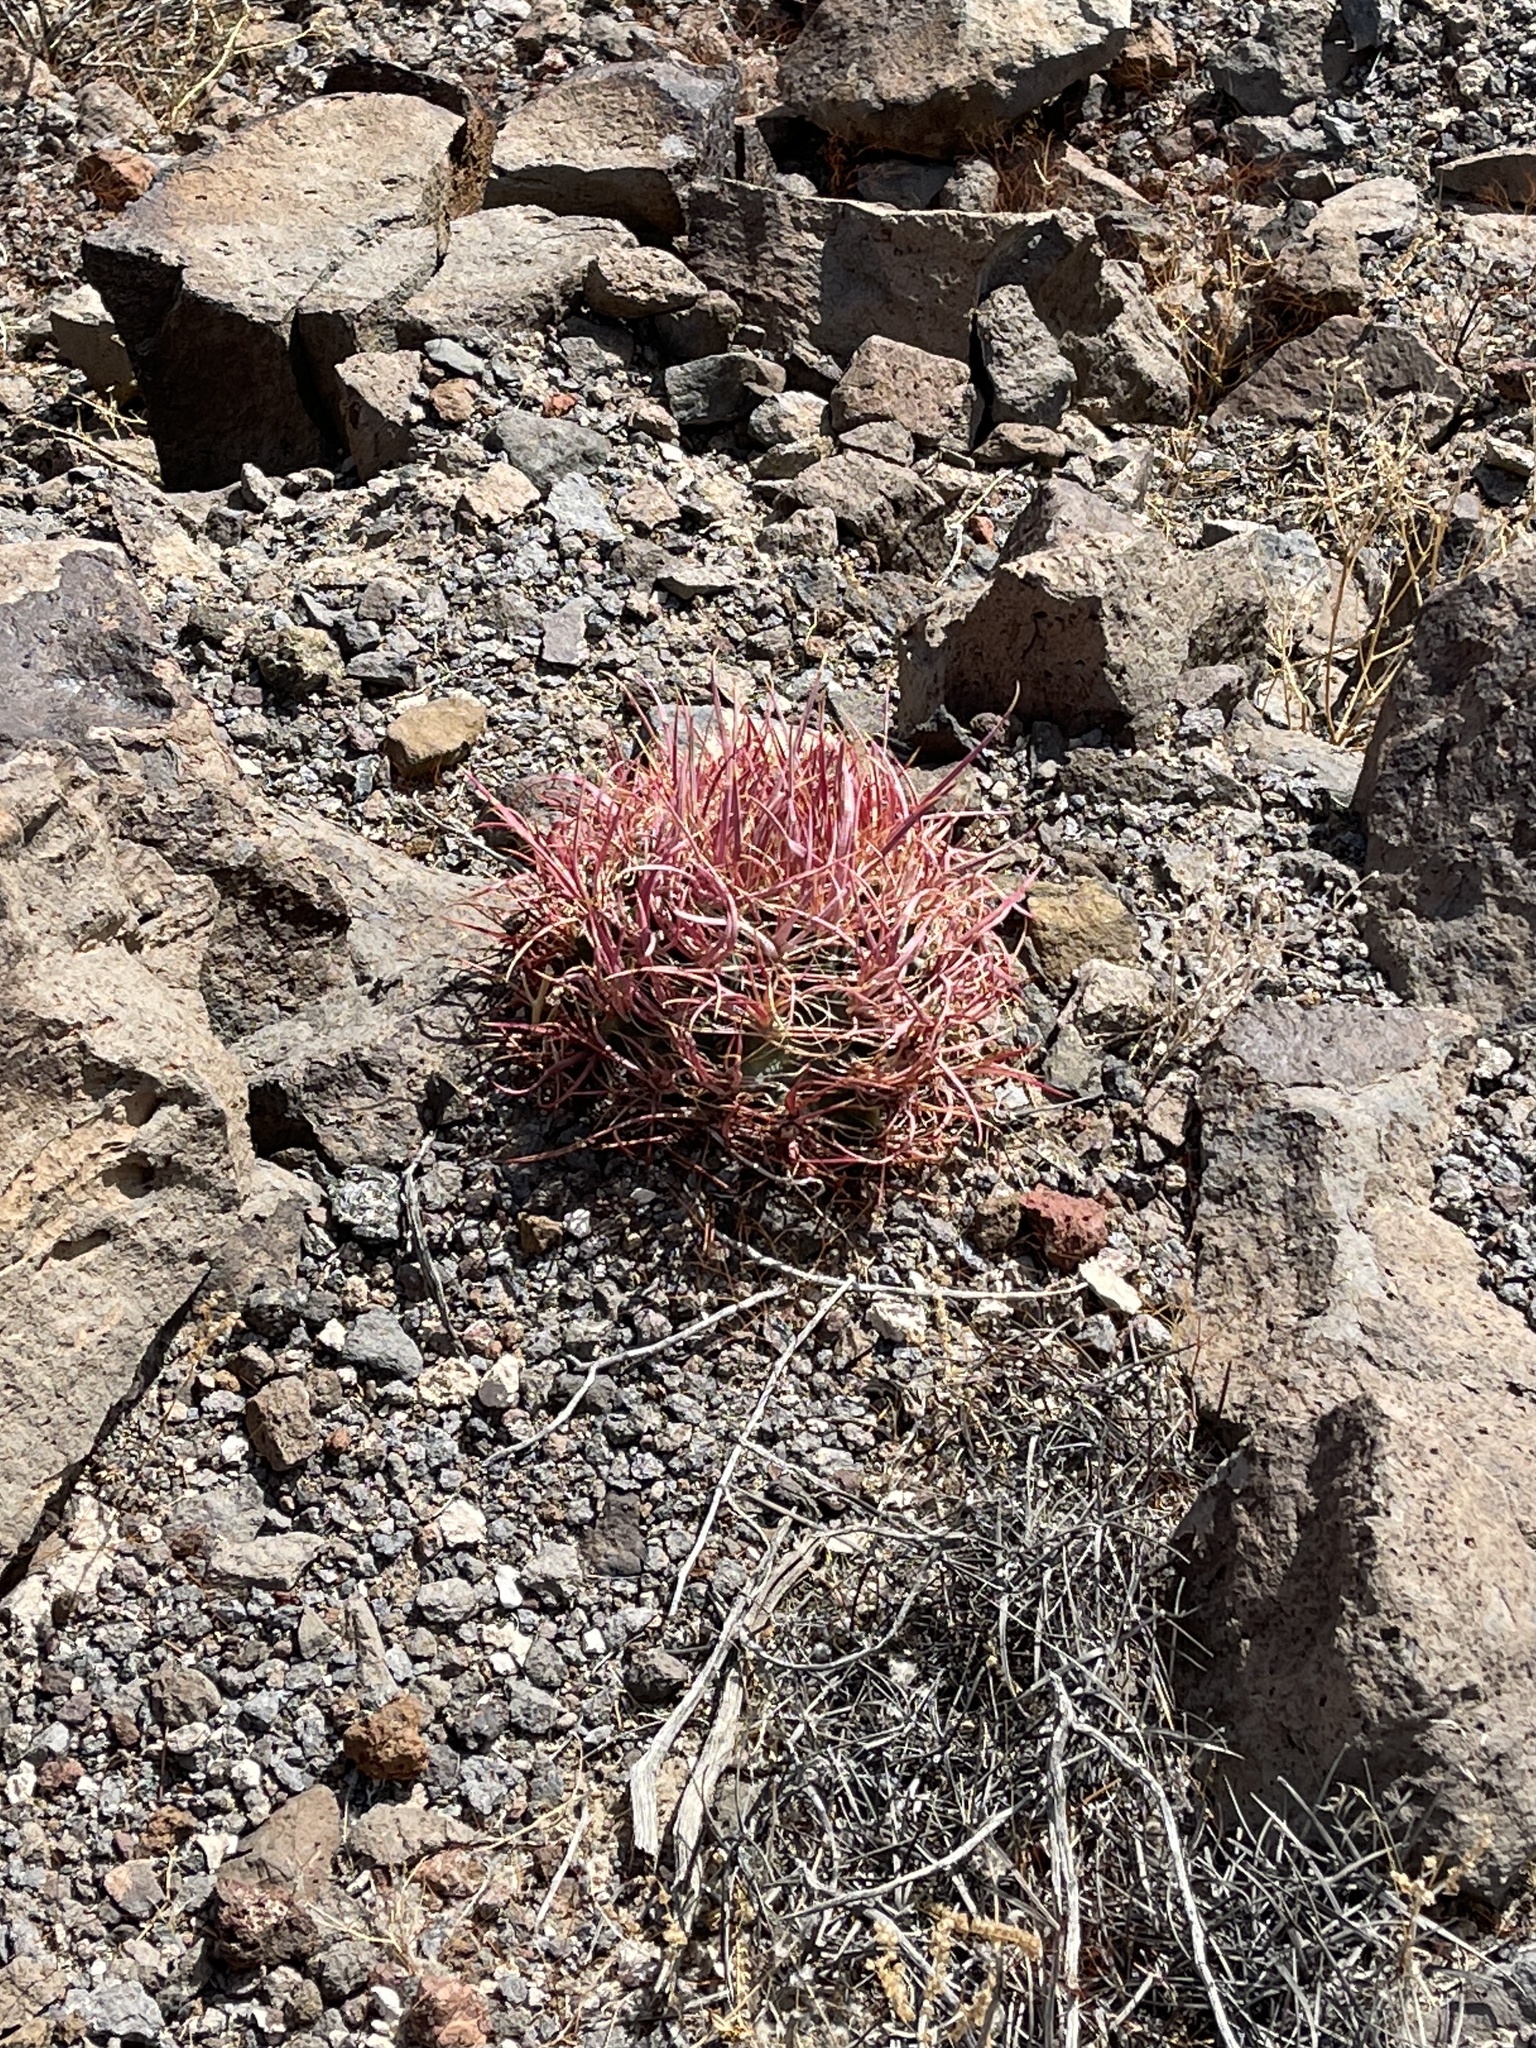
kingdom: Plantae
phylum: Tracheophyta
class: Magnoliopsida
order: Caryophyllales
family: Cactaceae
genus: Ferocactus
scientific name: Ferocactus cylindraceus
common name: California barrel cactus
